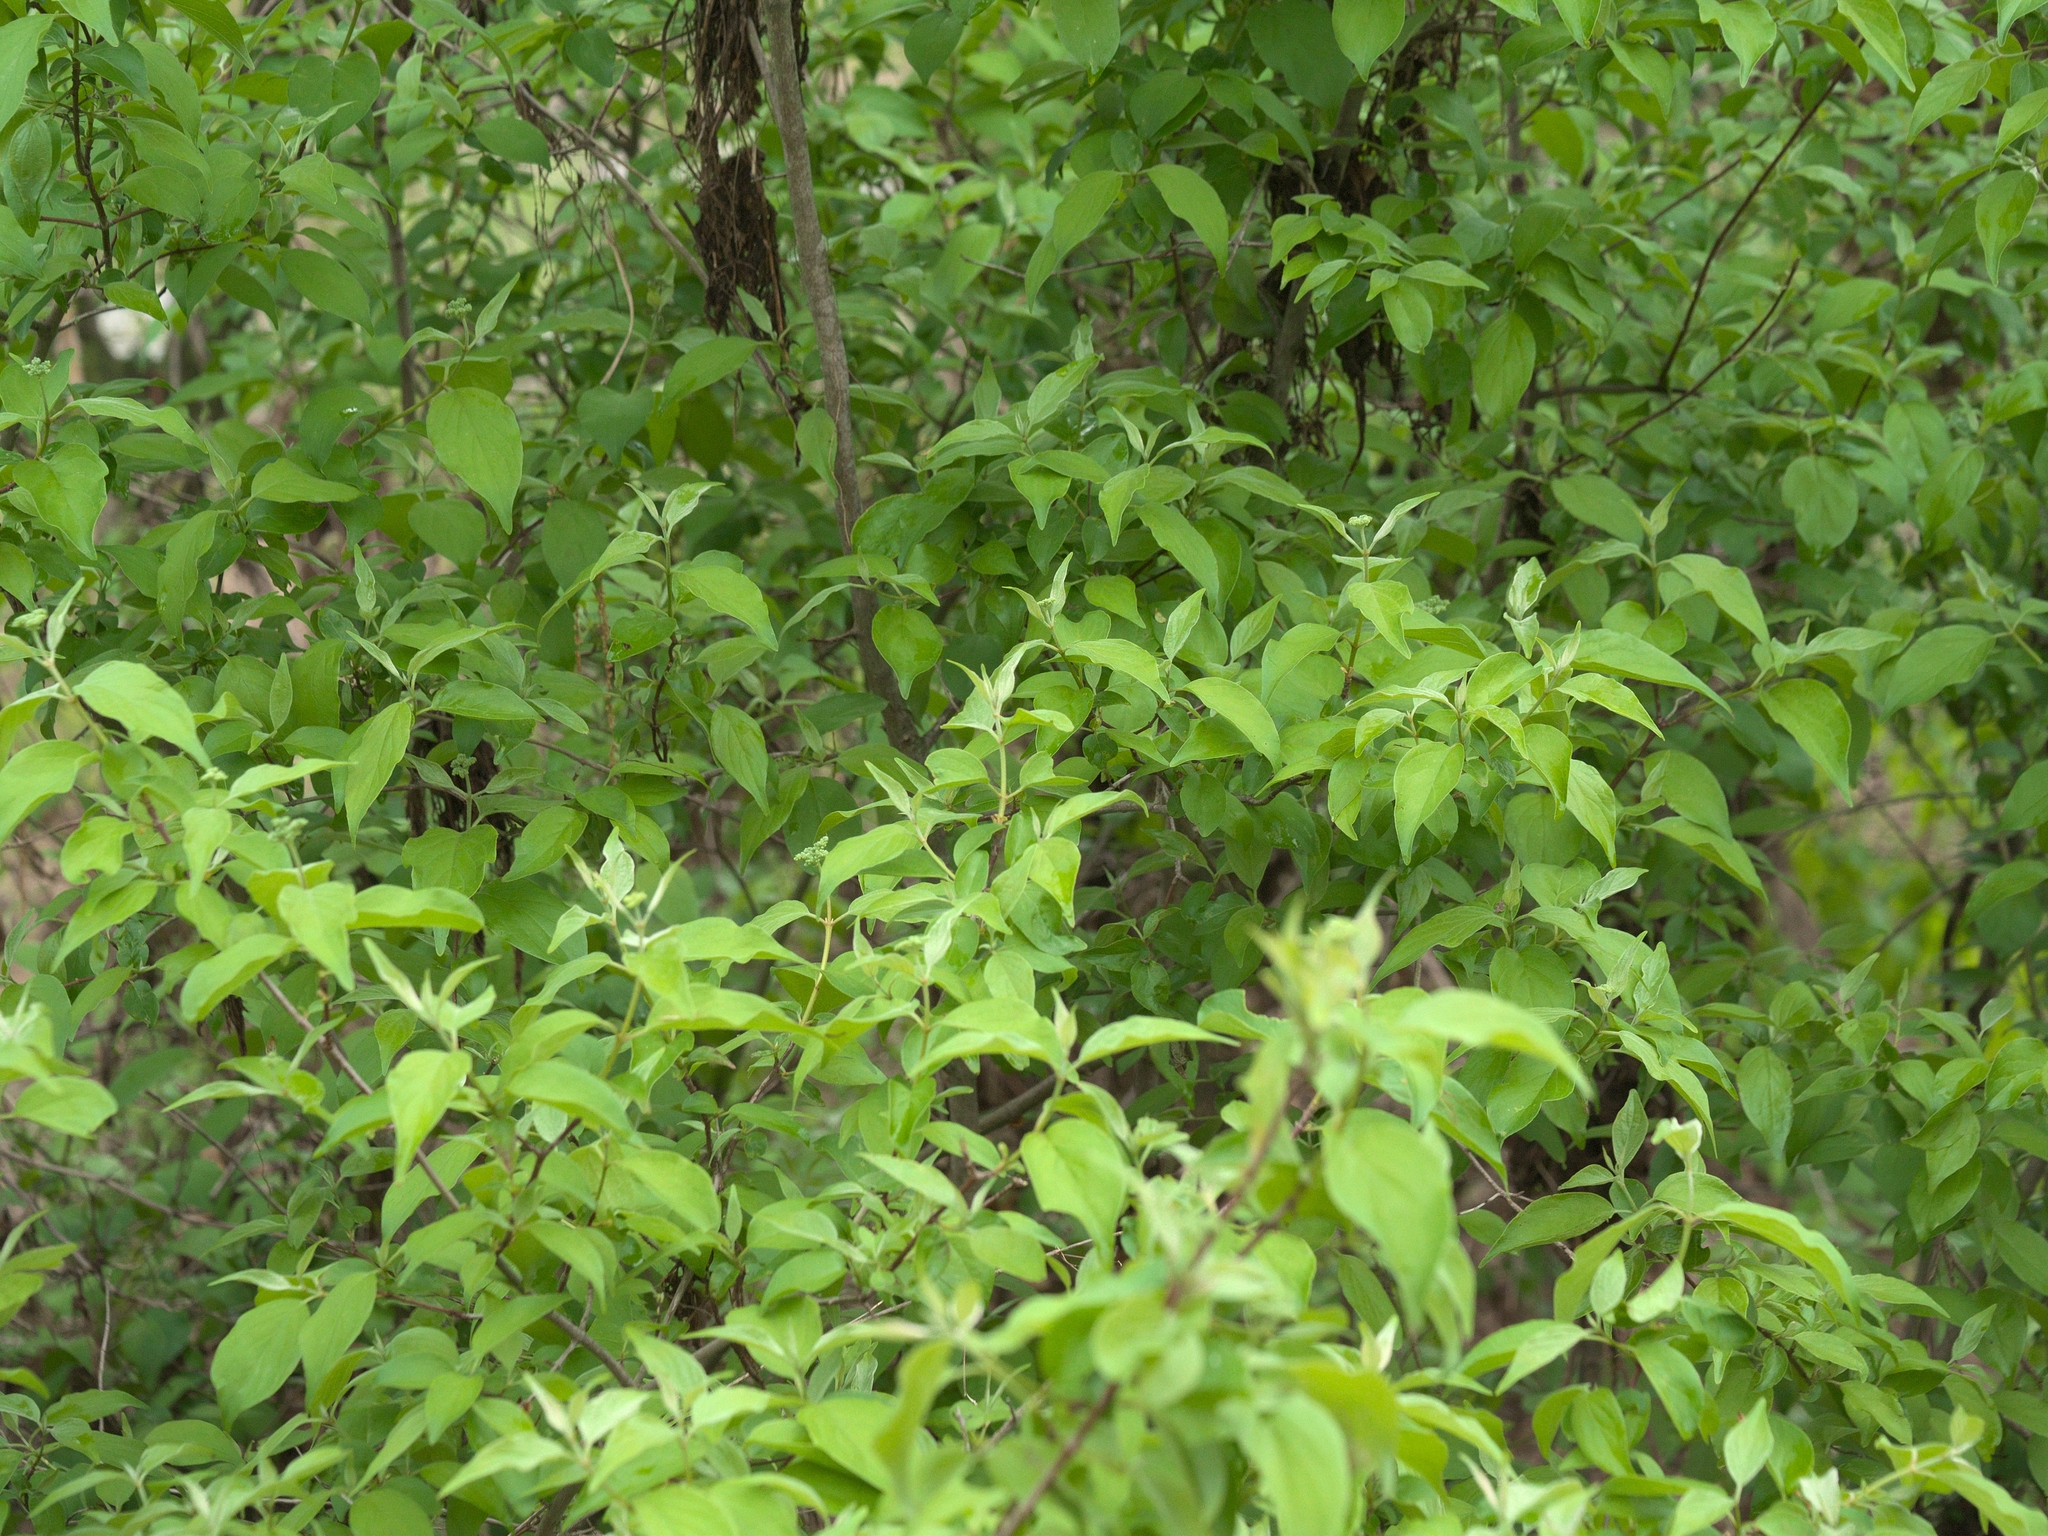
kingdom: Plantae
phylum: Tracheophyta
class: Magnoliopsida
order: Cornales
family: Cornaceae
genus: Cornus
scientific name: Cornus drummondii
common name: Rough-leaf dogwood
